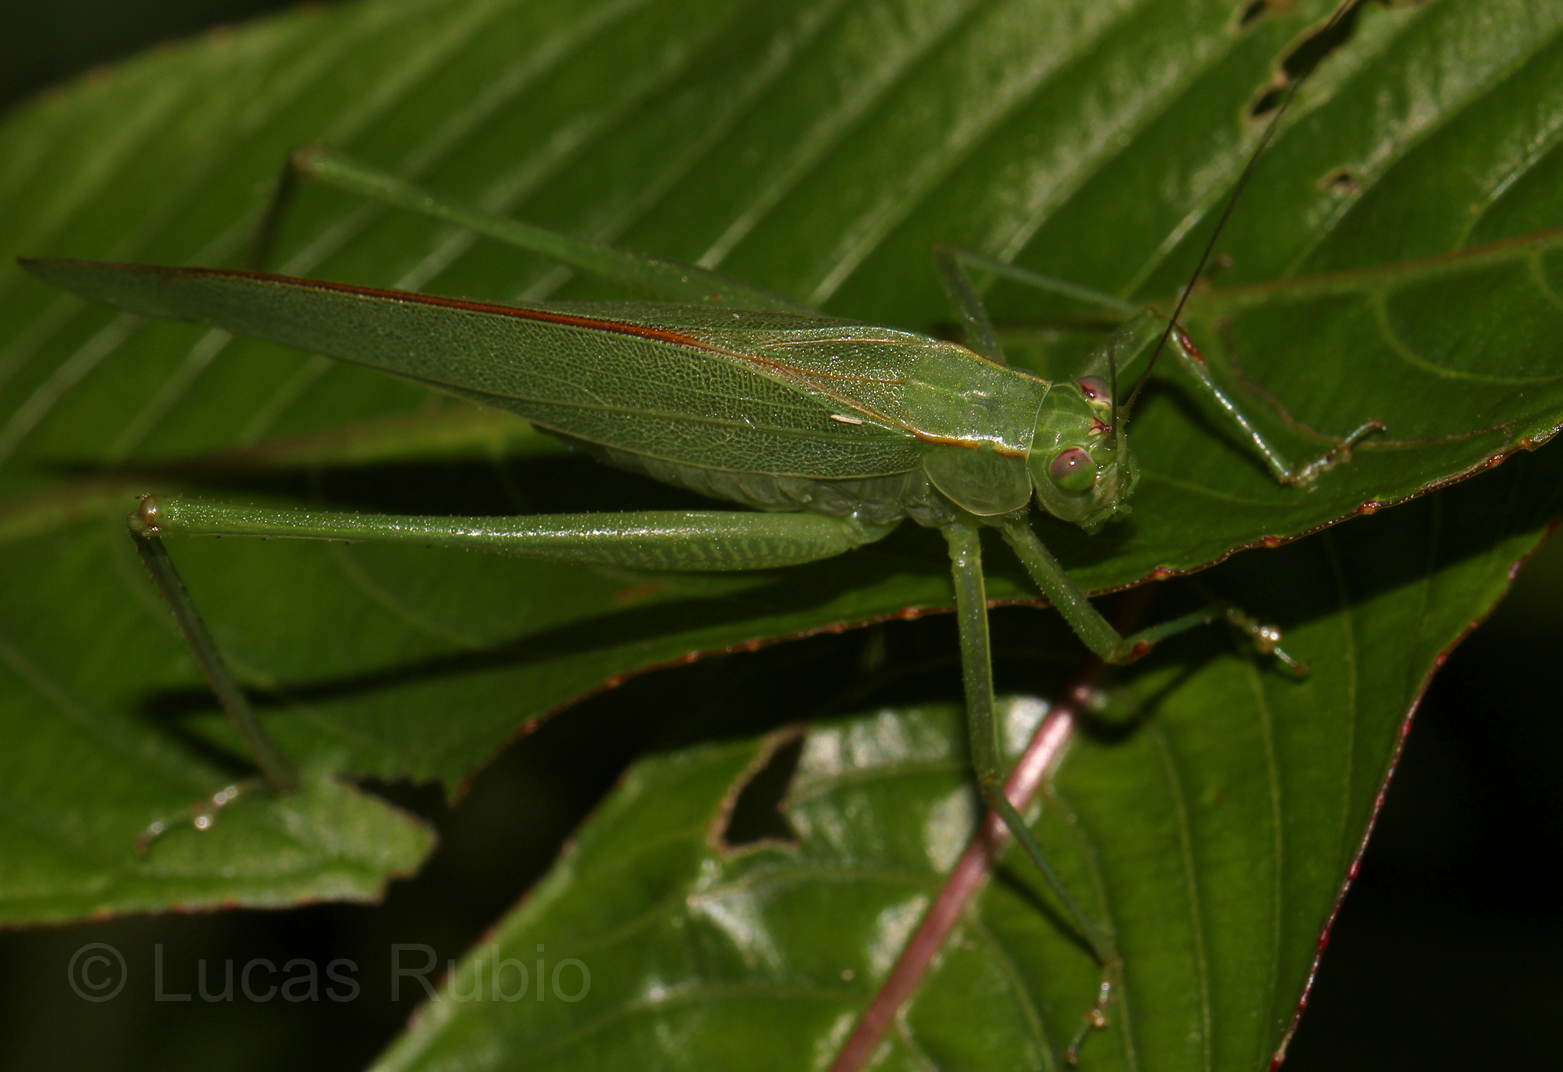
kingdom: Animalia
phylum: Arthropoda
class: Insecta
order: Orthoptera
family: Tettigoniidae
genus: Ligocatinus
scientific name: Ligocatinus spinatus
